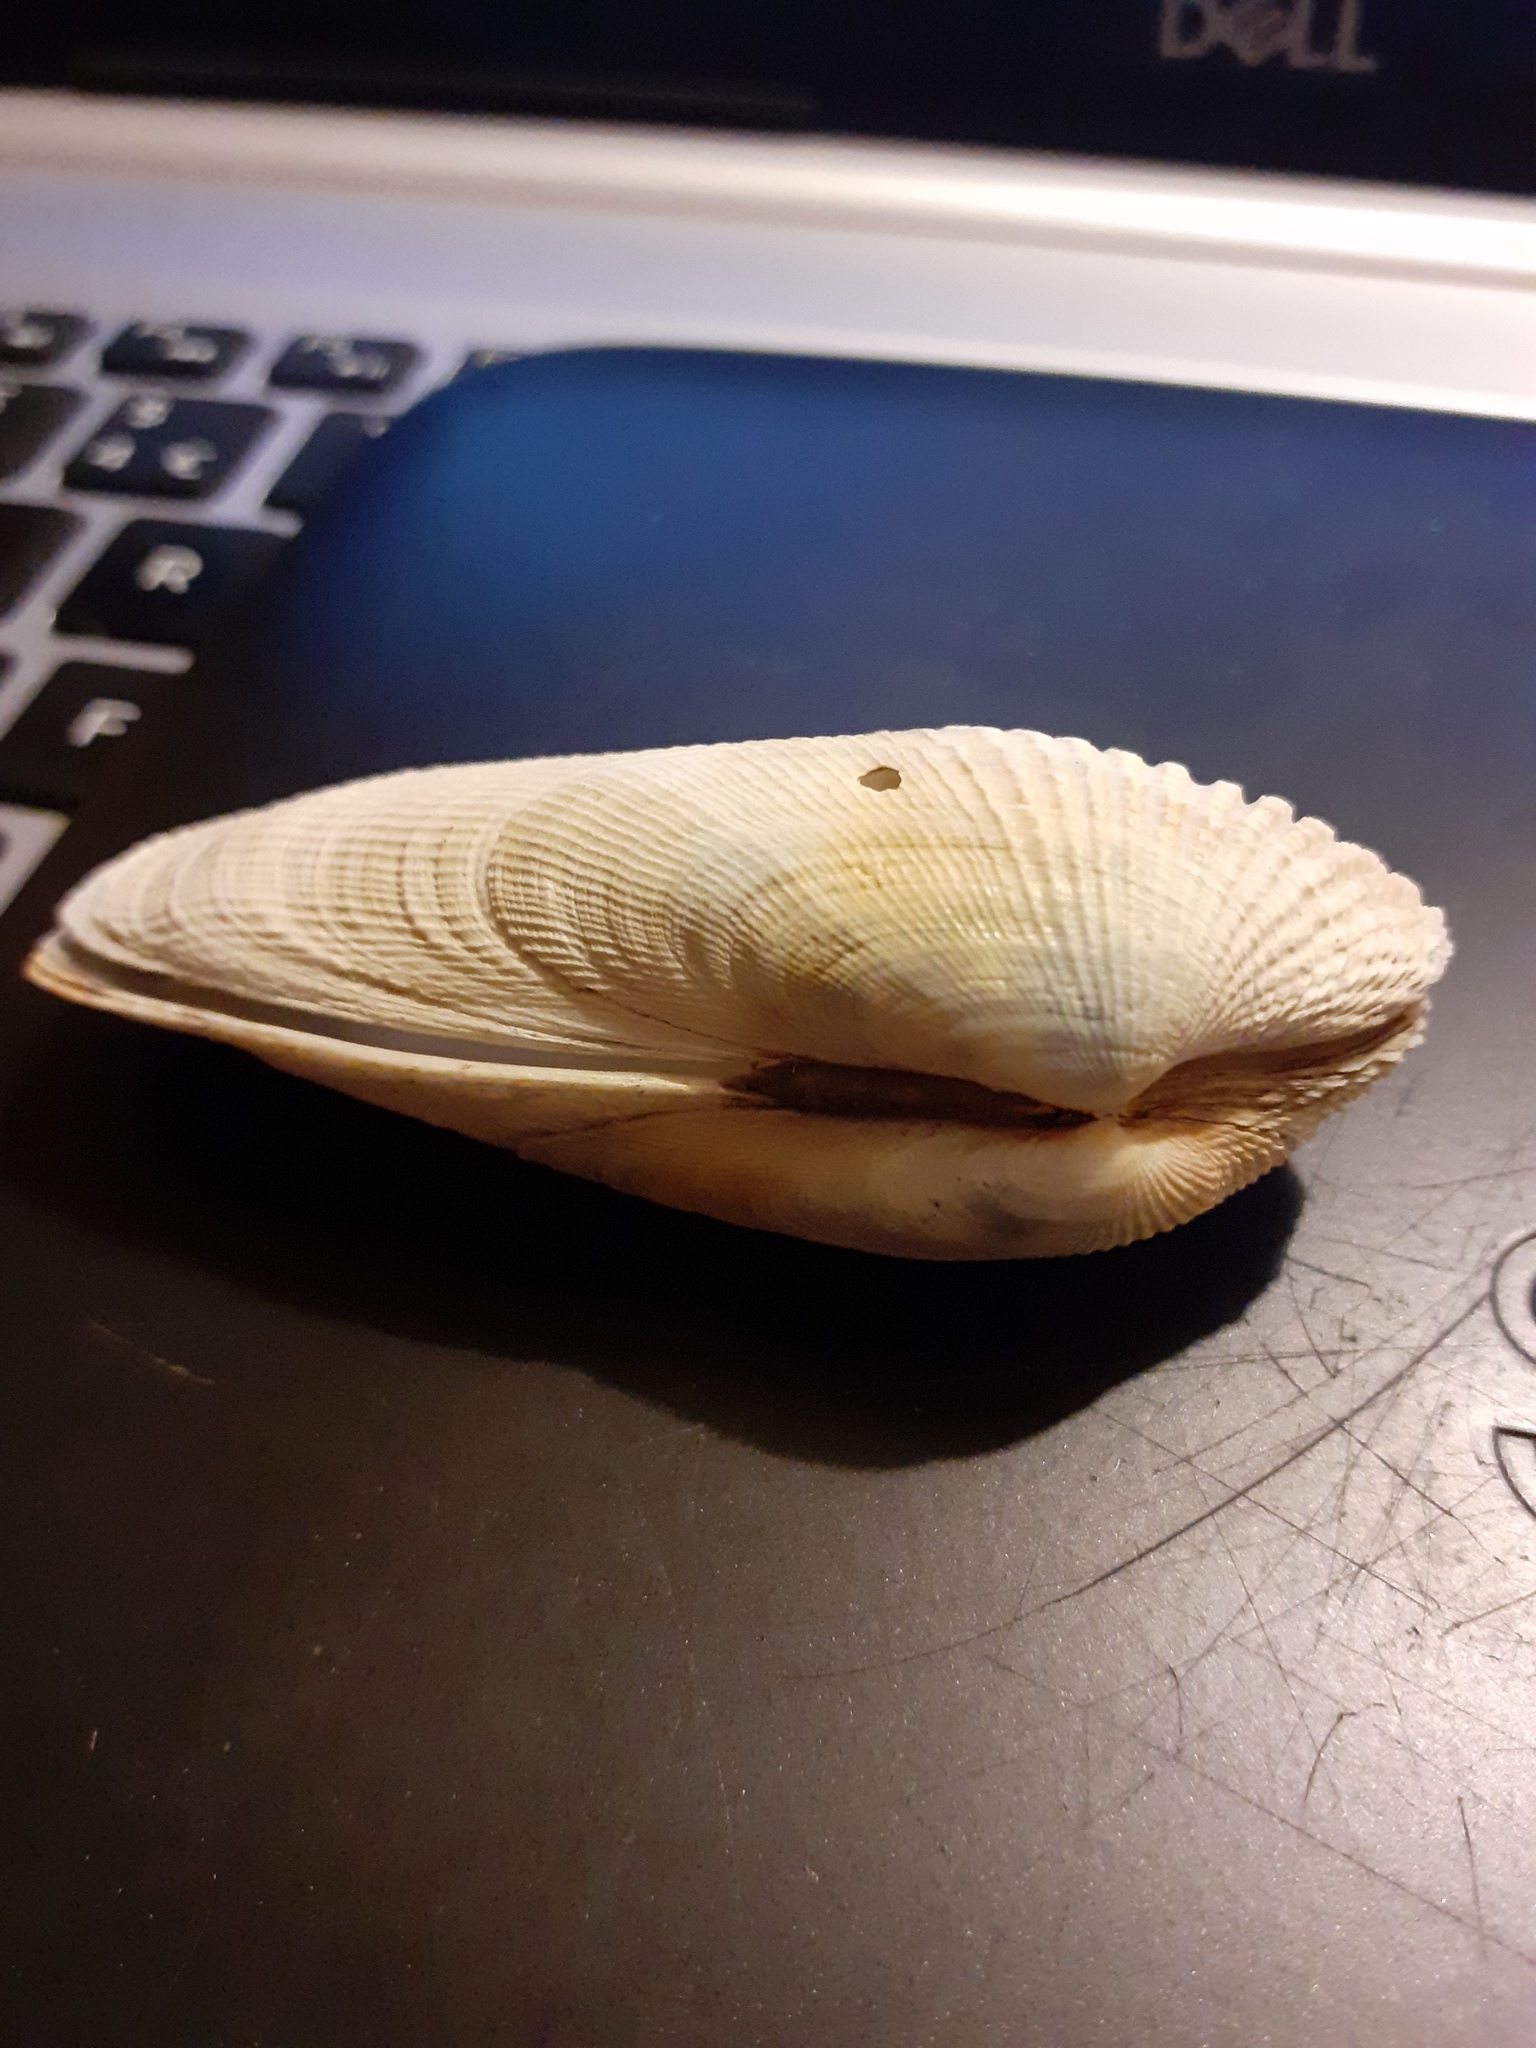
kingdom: Animalia
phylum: Mollusca
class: Bivalvia
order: Venerida
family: Veneridae
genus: Petricolaria
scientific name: Petricolaria pholadiformis
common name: American piddock
